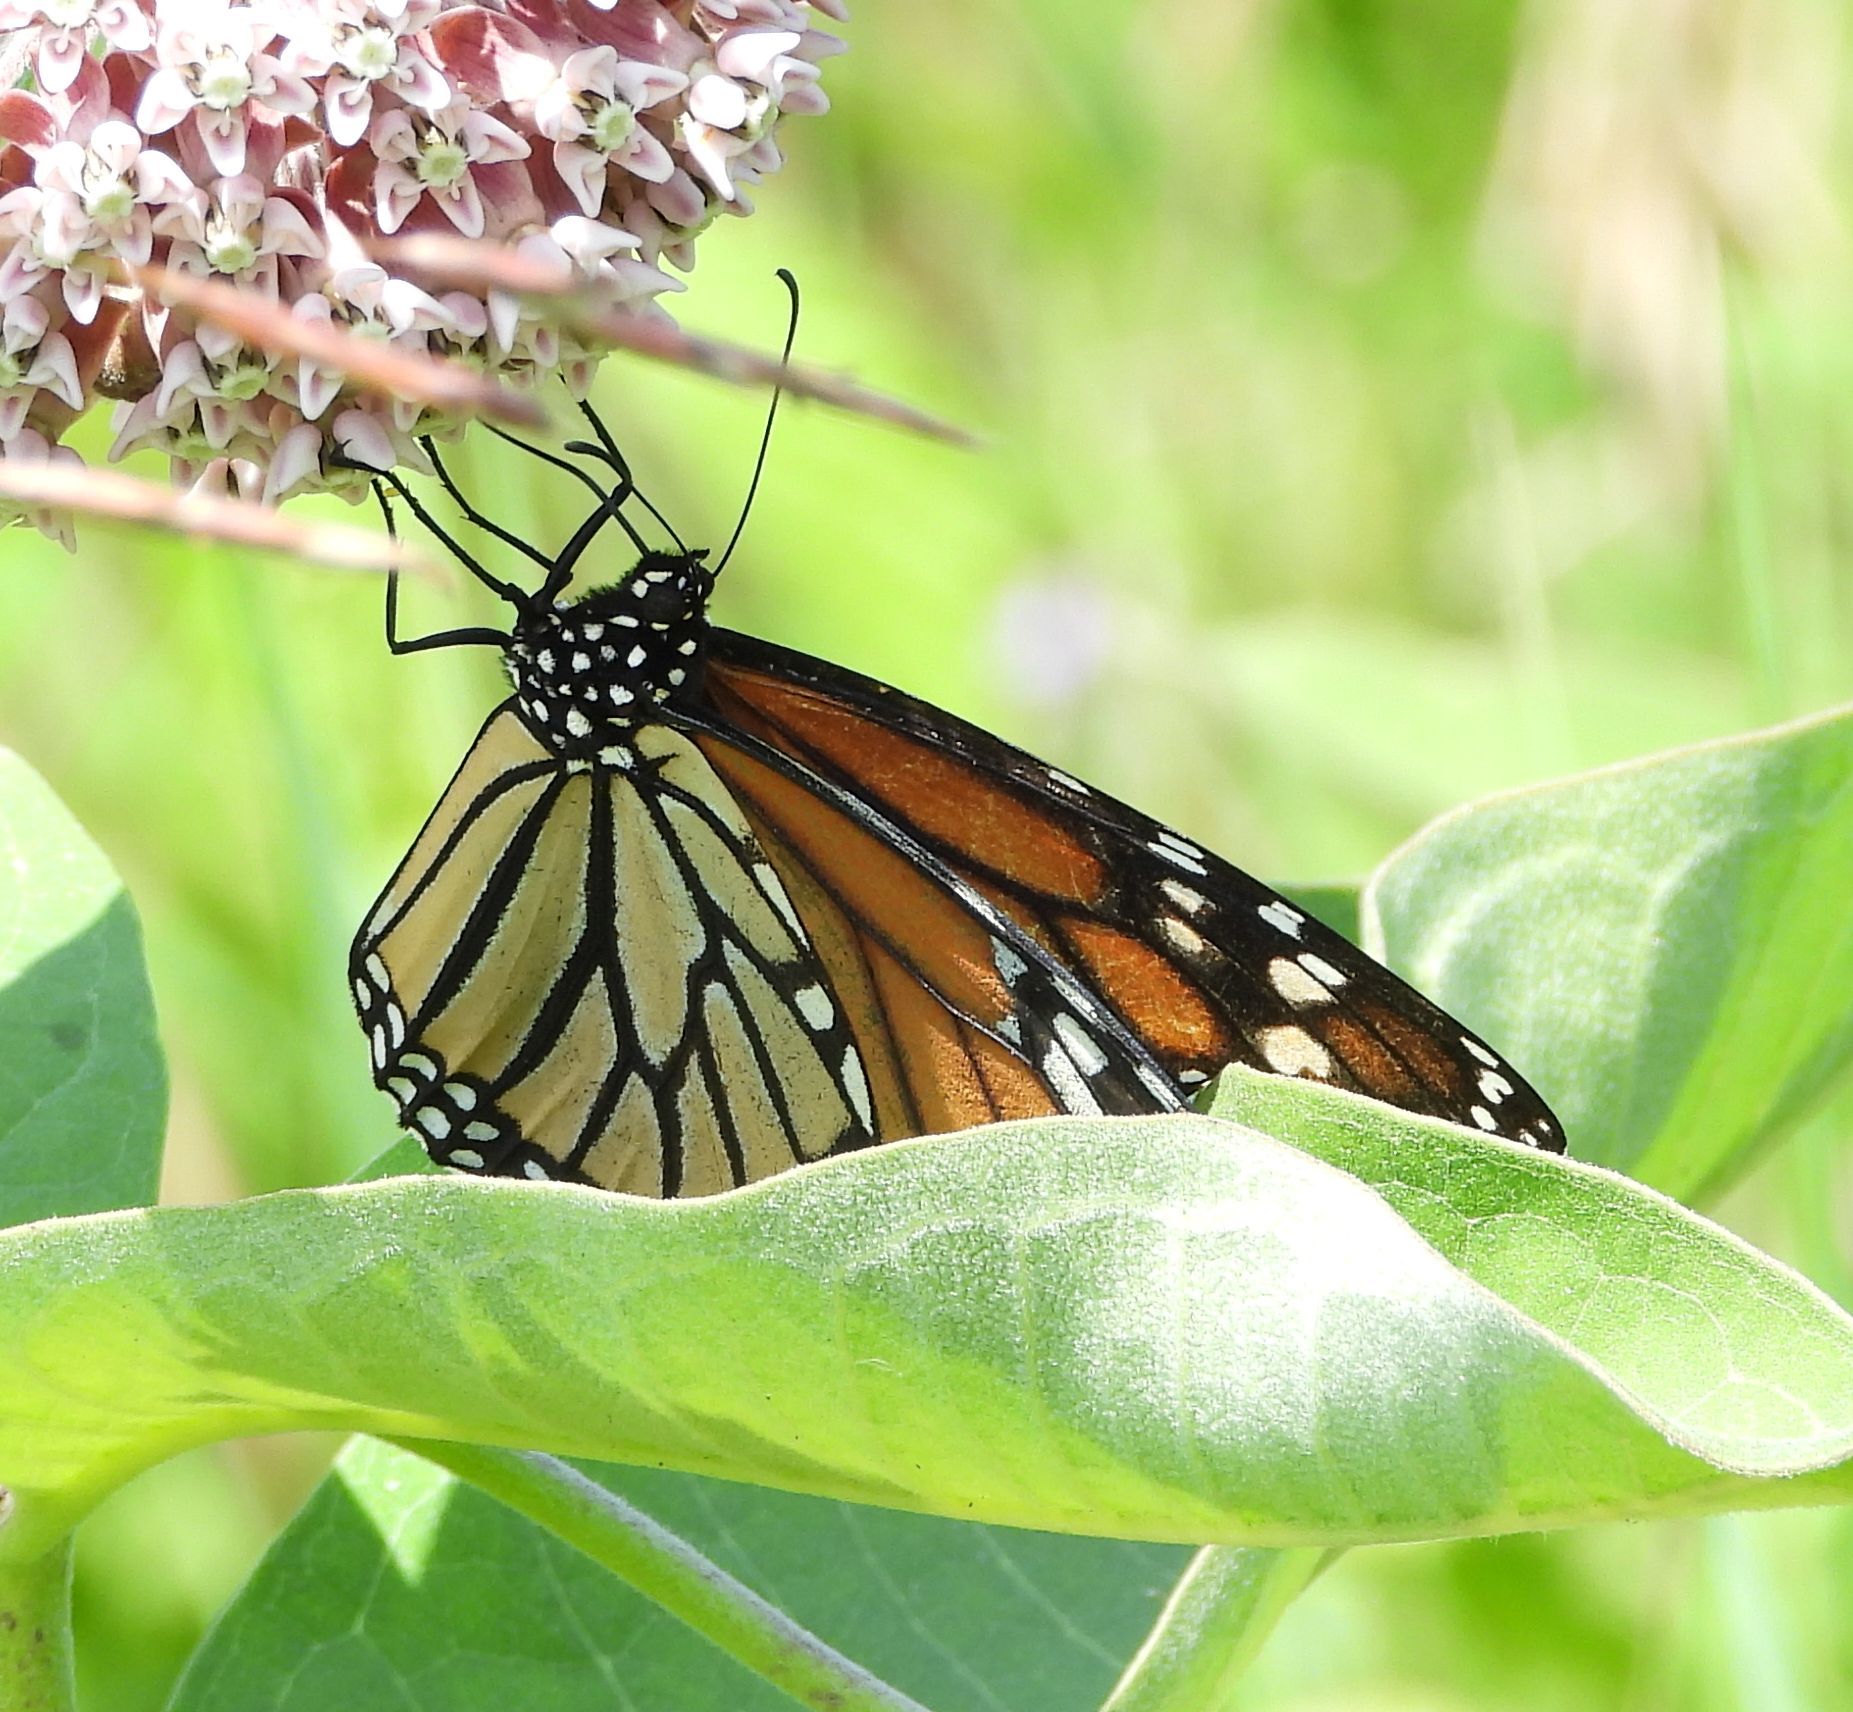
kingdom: Animalia
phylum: Arthropoda
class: Insecta
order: Lepidoptera
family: Nymphalidae
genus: Danaus
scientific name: Danaus plexippus
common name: Monarch
